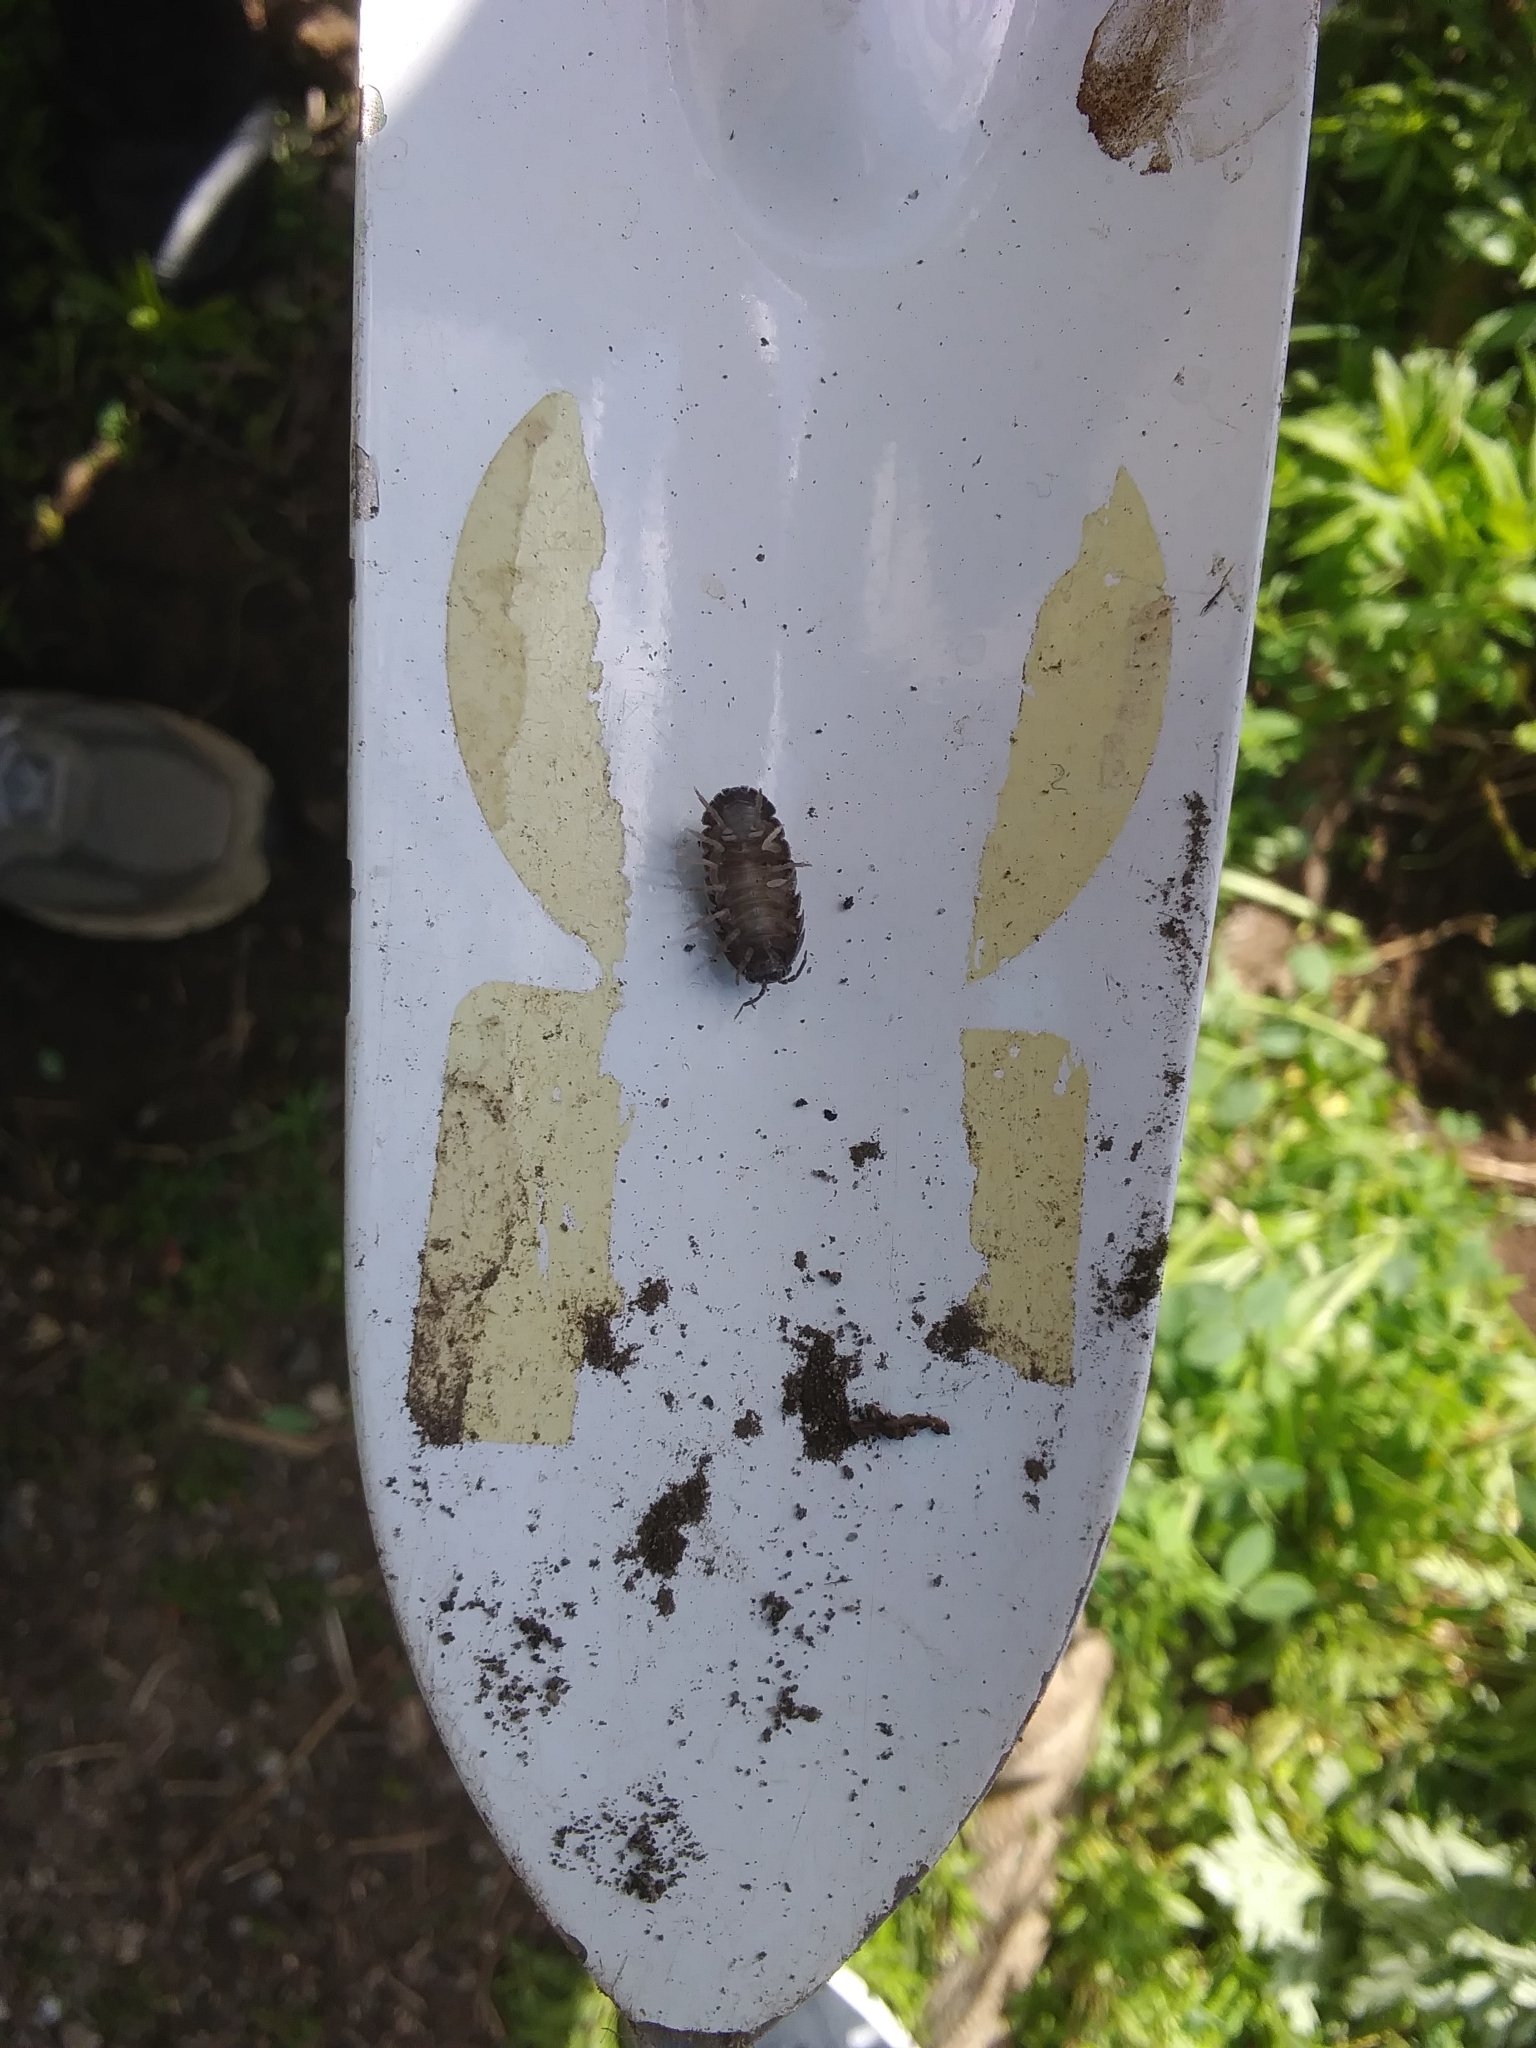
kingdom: Animalia
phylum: Arthropoda
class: Malacostraca
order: Isopoda
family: Armadillidiidae
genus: Armadillidium
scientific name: Armadillidium vulgare
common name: Common pill woodlouse
